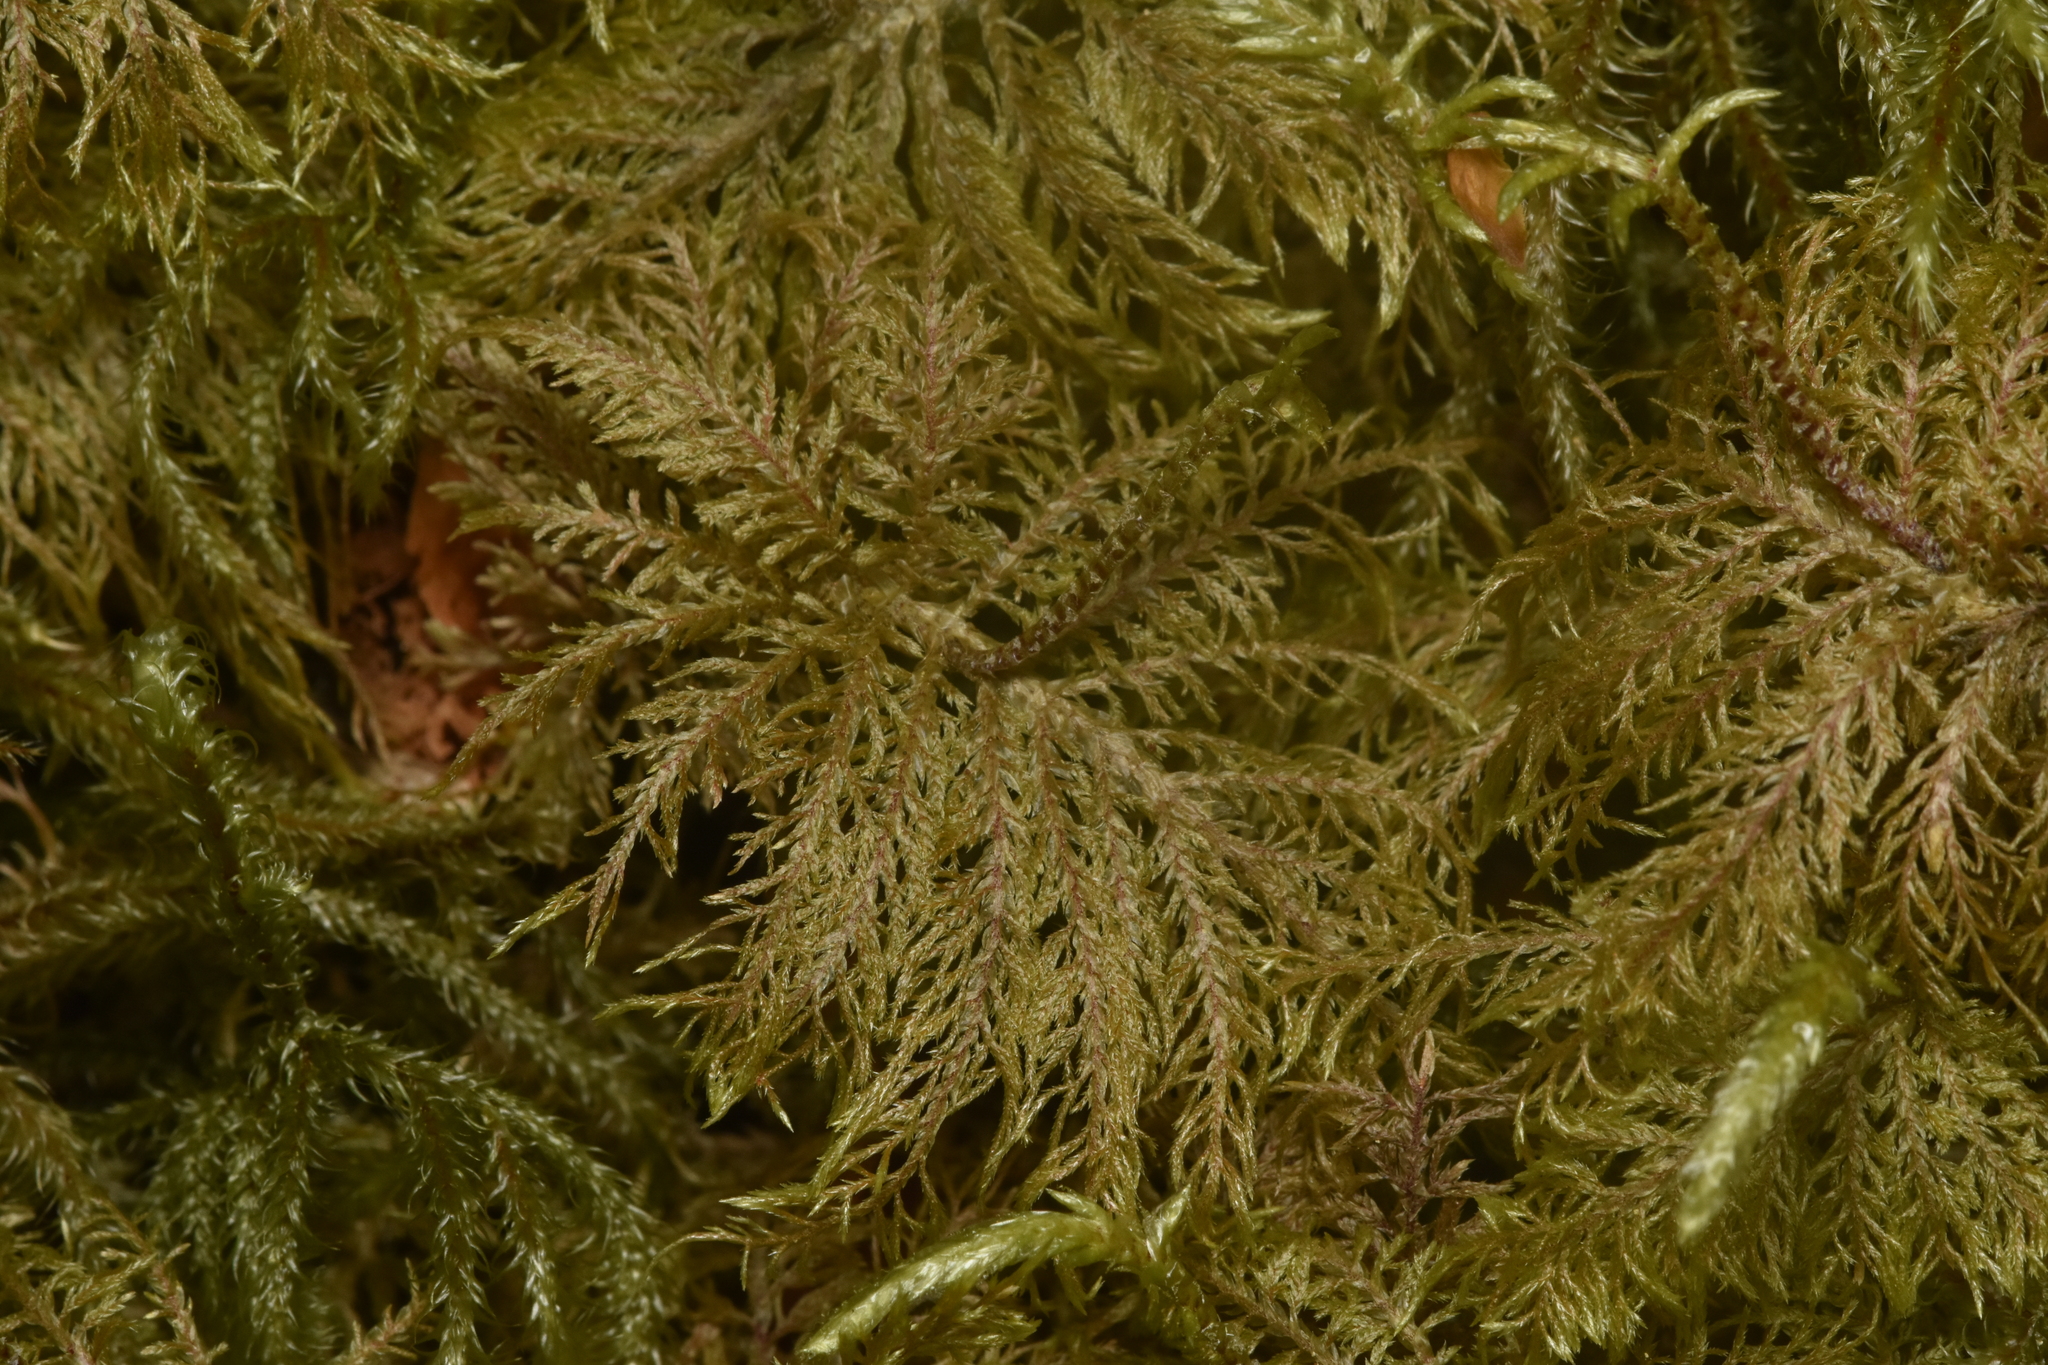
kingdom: Plantae
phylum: Bryophyta
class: Bryopsida
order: Hypnales
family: Hylocomiaceae
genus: Hylocomium
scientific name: Hylocomium splendens
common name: Stairstep moss
